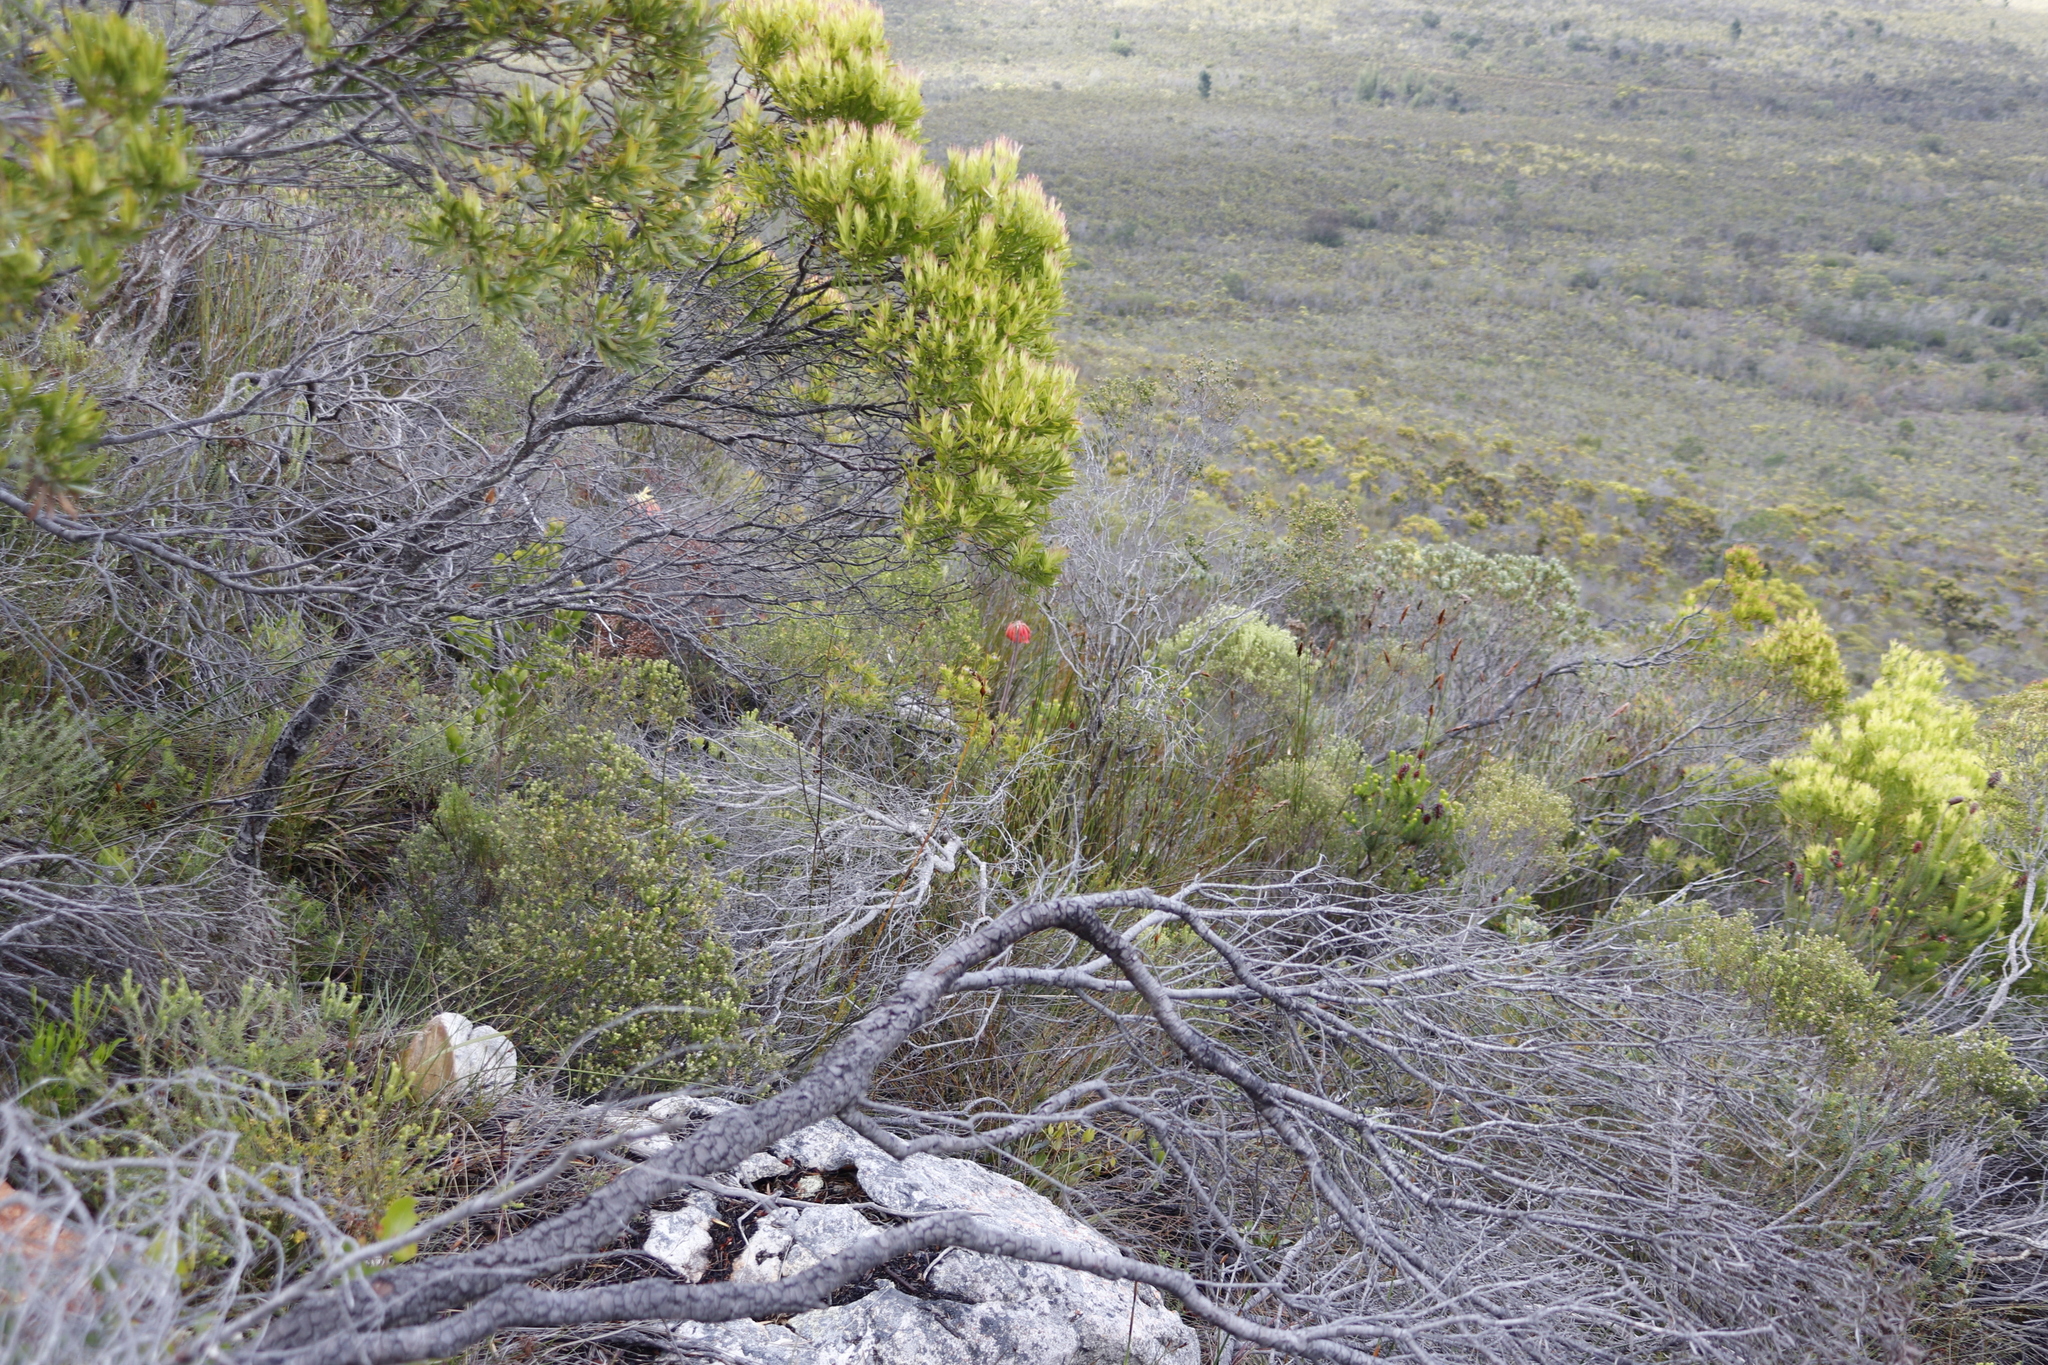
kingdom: Plantae
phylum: Tracheophyta
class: Magnoliopsida
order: Proteales
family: Proteaceae
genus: Leucadendron
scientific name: Leucadendron xanthoconus
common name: Sickle-leaf conebush
